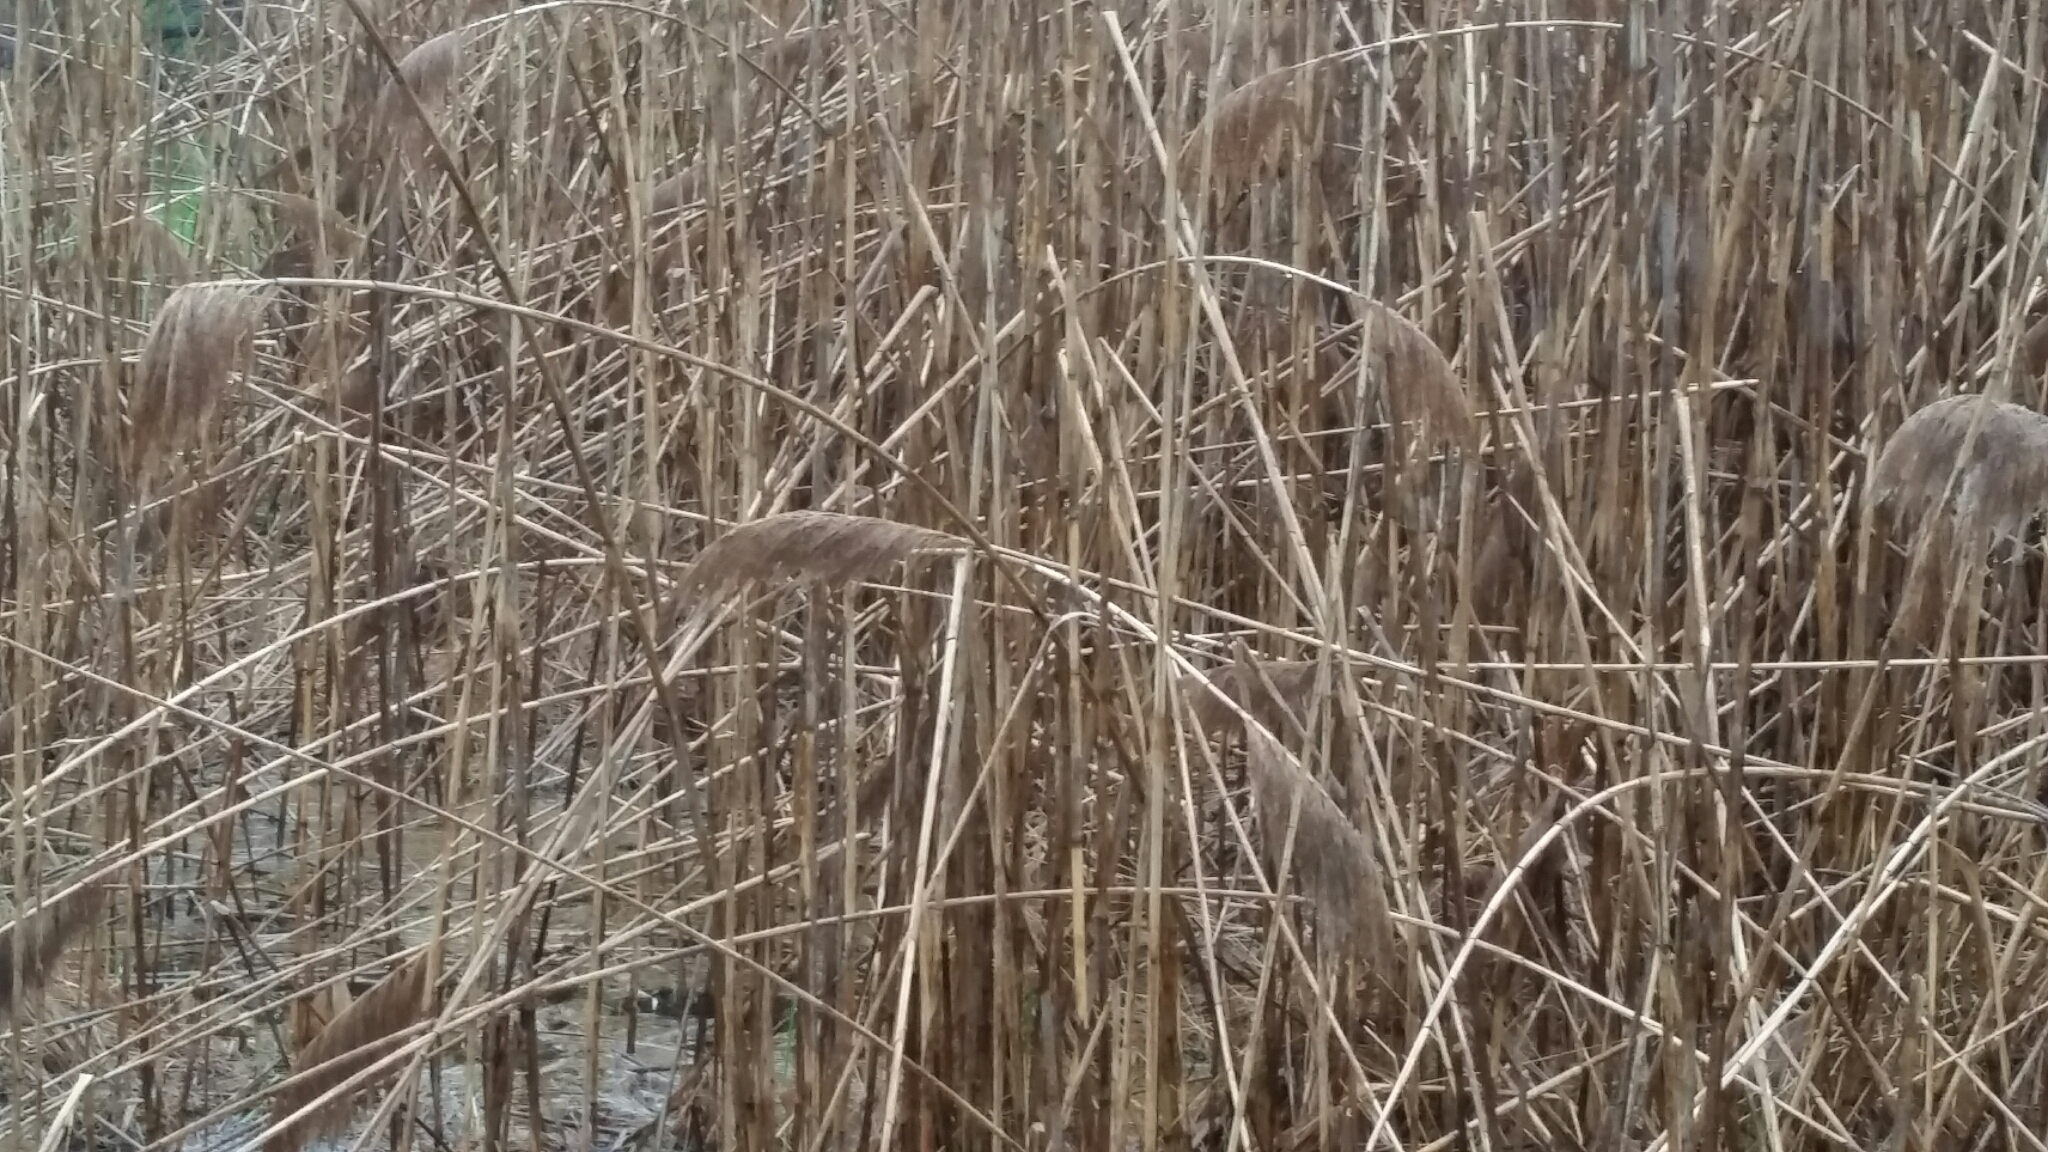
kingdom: Plantae
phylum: Tracheophyta
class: Liliopsida
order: Poales
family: Poaceae
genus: Phragmites
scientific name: Phragmites australis
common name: Common reed
